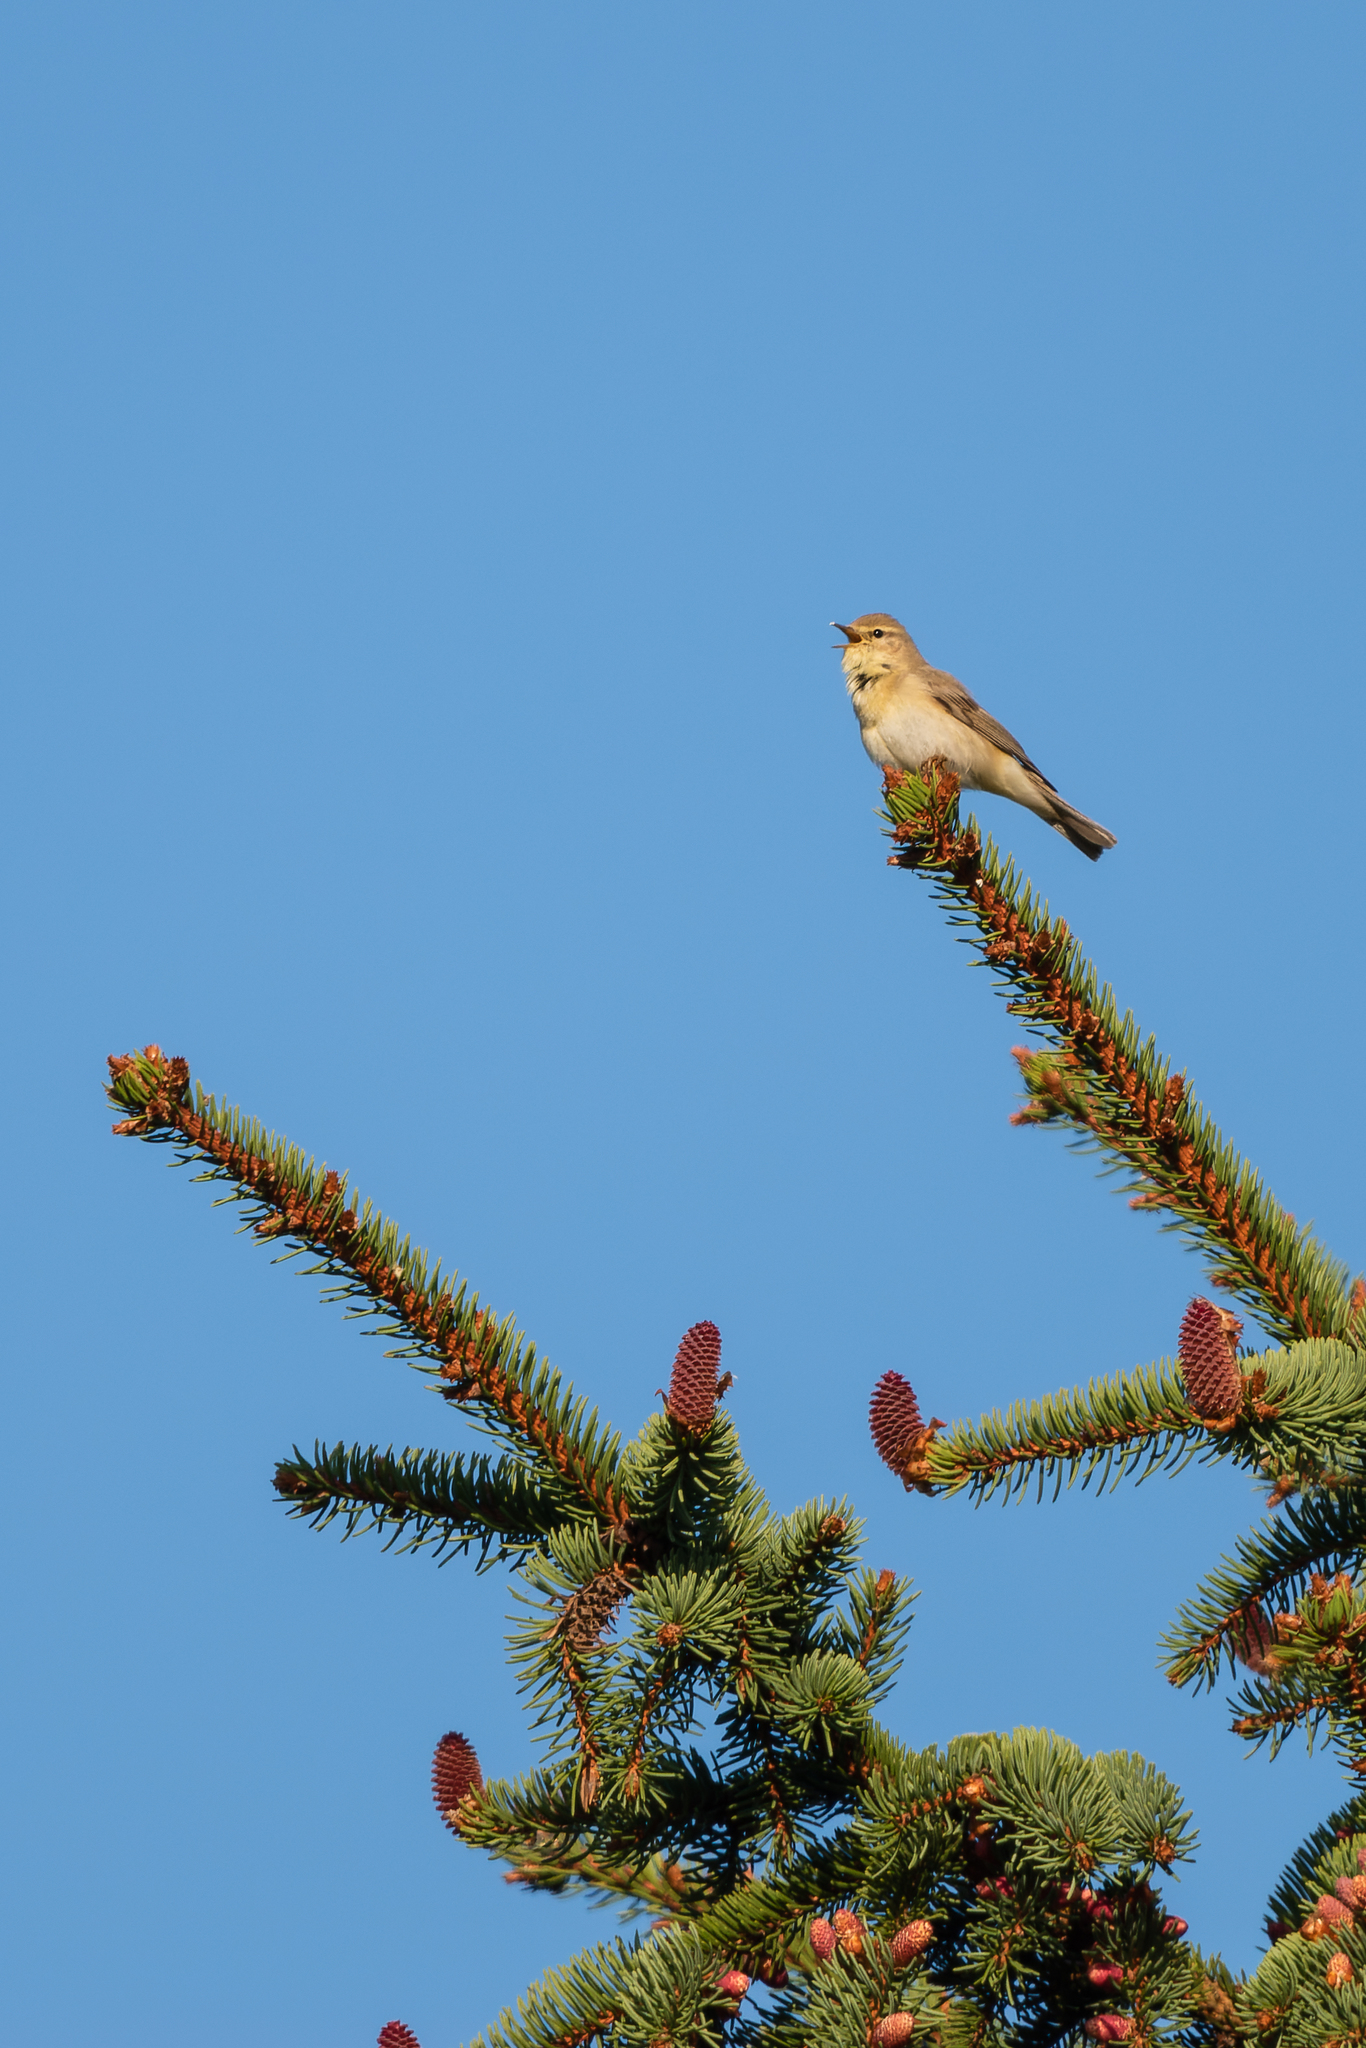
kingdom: Animalia
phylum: Chordata
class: Aves
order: Passeriformes
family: Phylloscopidae
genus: Phylloscopus
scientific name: Phylloscopus trochilus
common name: Willow warbler
